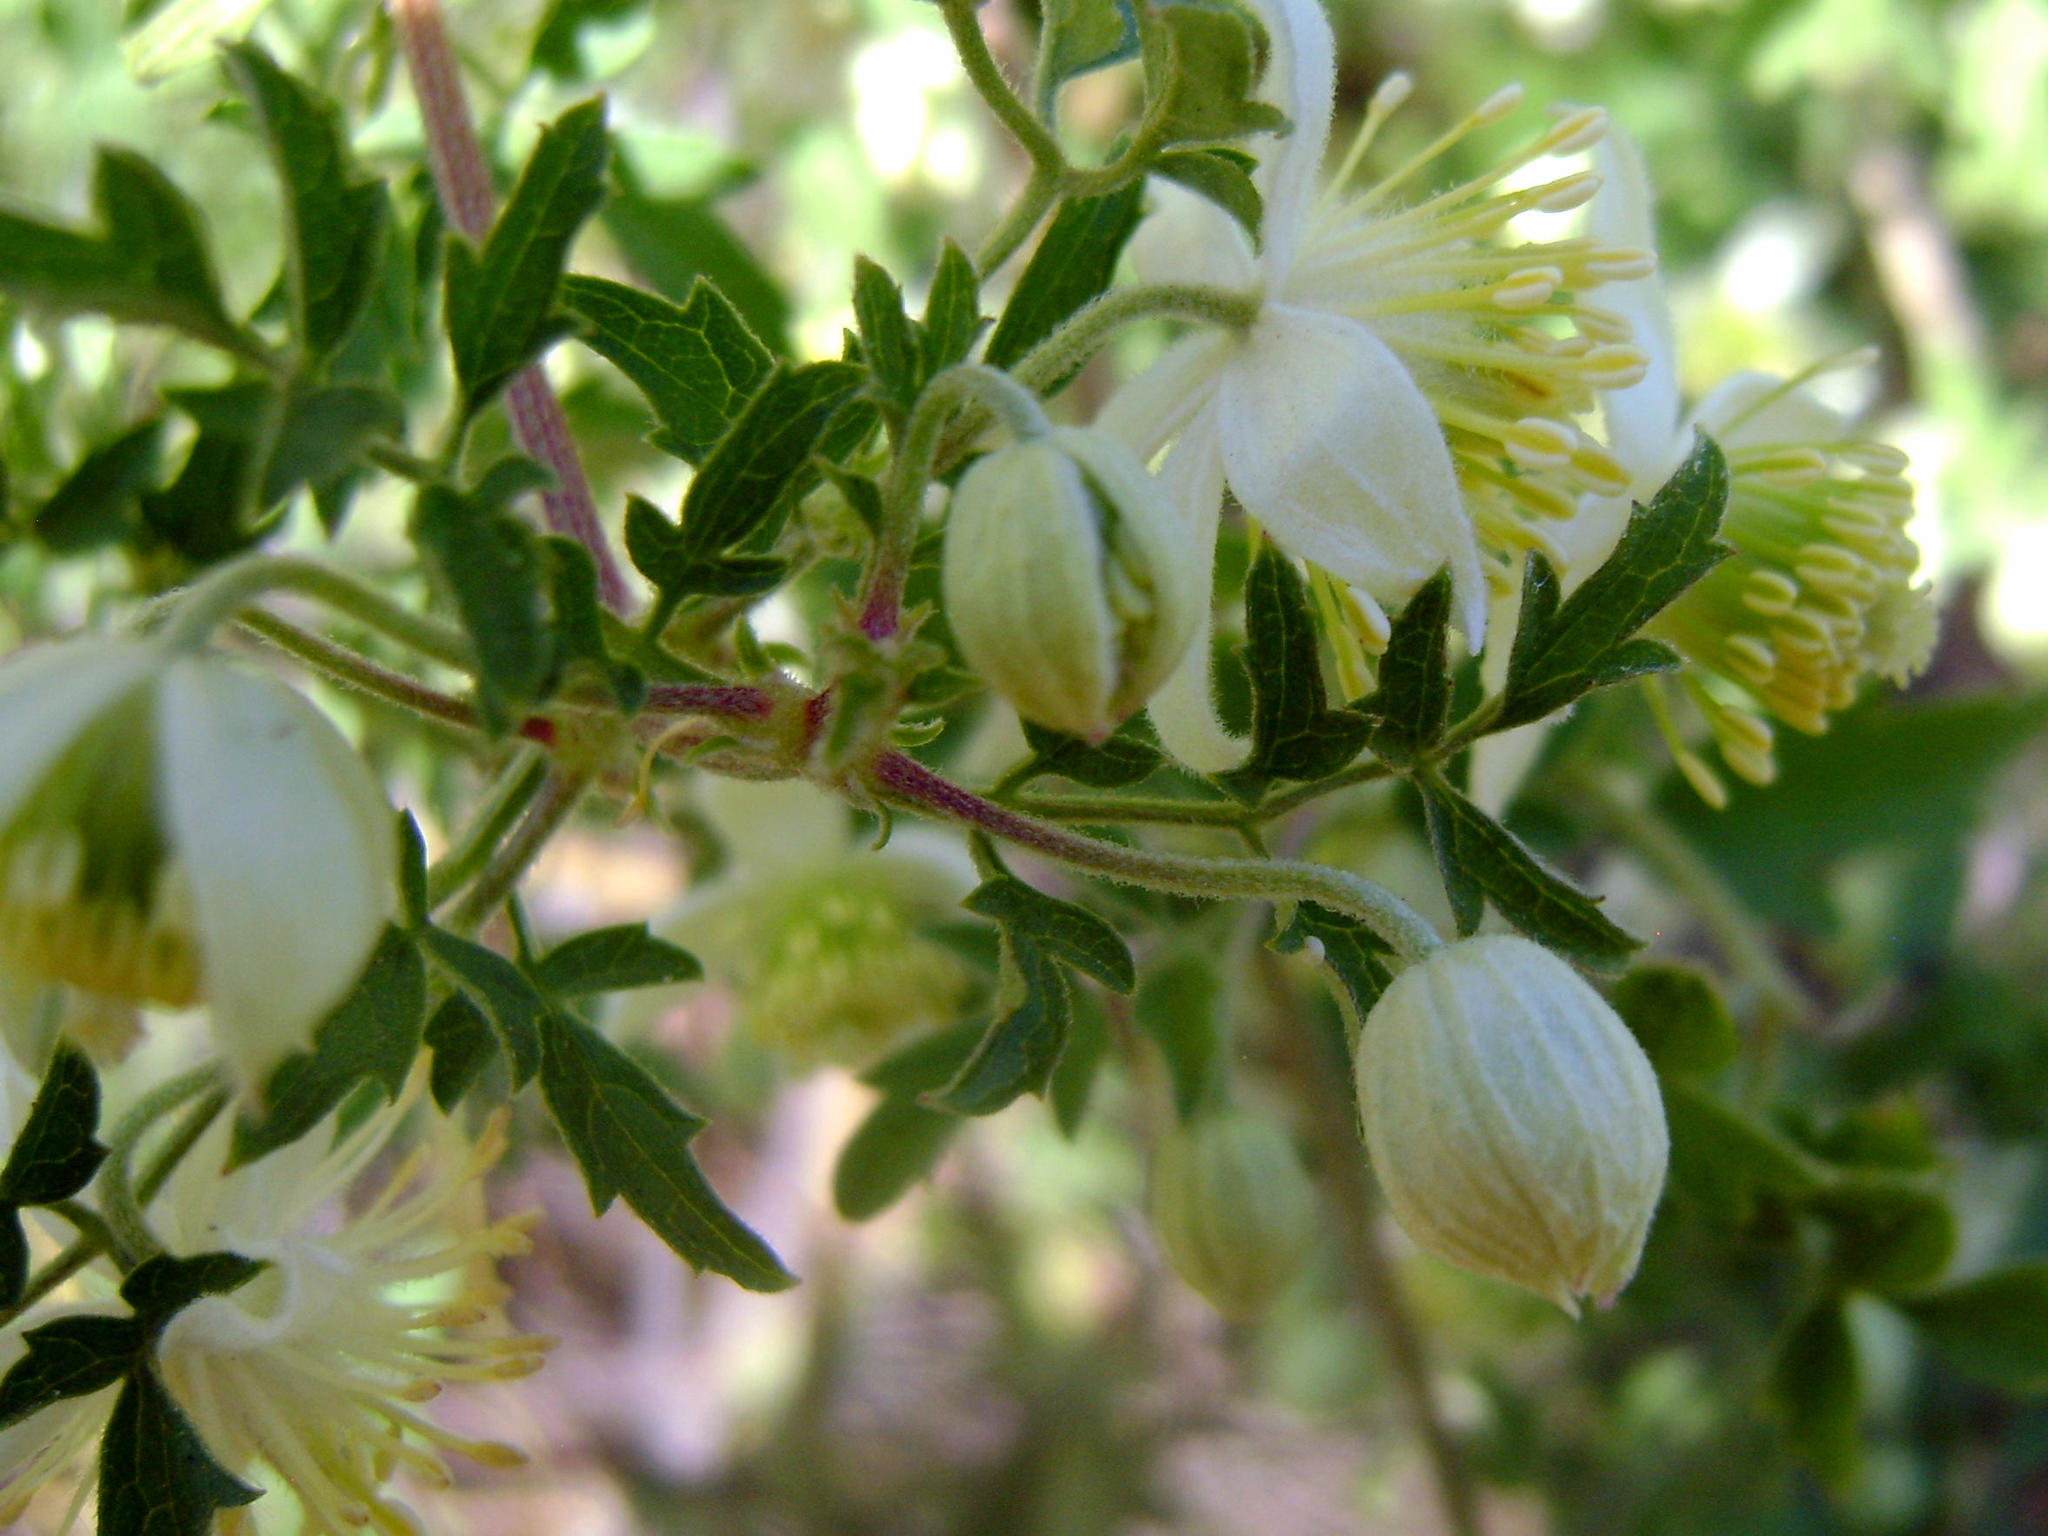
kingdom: Plantae
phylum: Tracheophyta
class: Magnoliopsida
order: Ranunculales
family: Ranunculaceae
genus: Clematis
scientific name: Clematis brachiata
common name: Traveler's-joy
